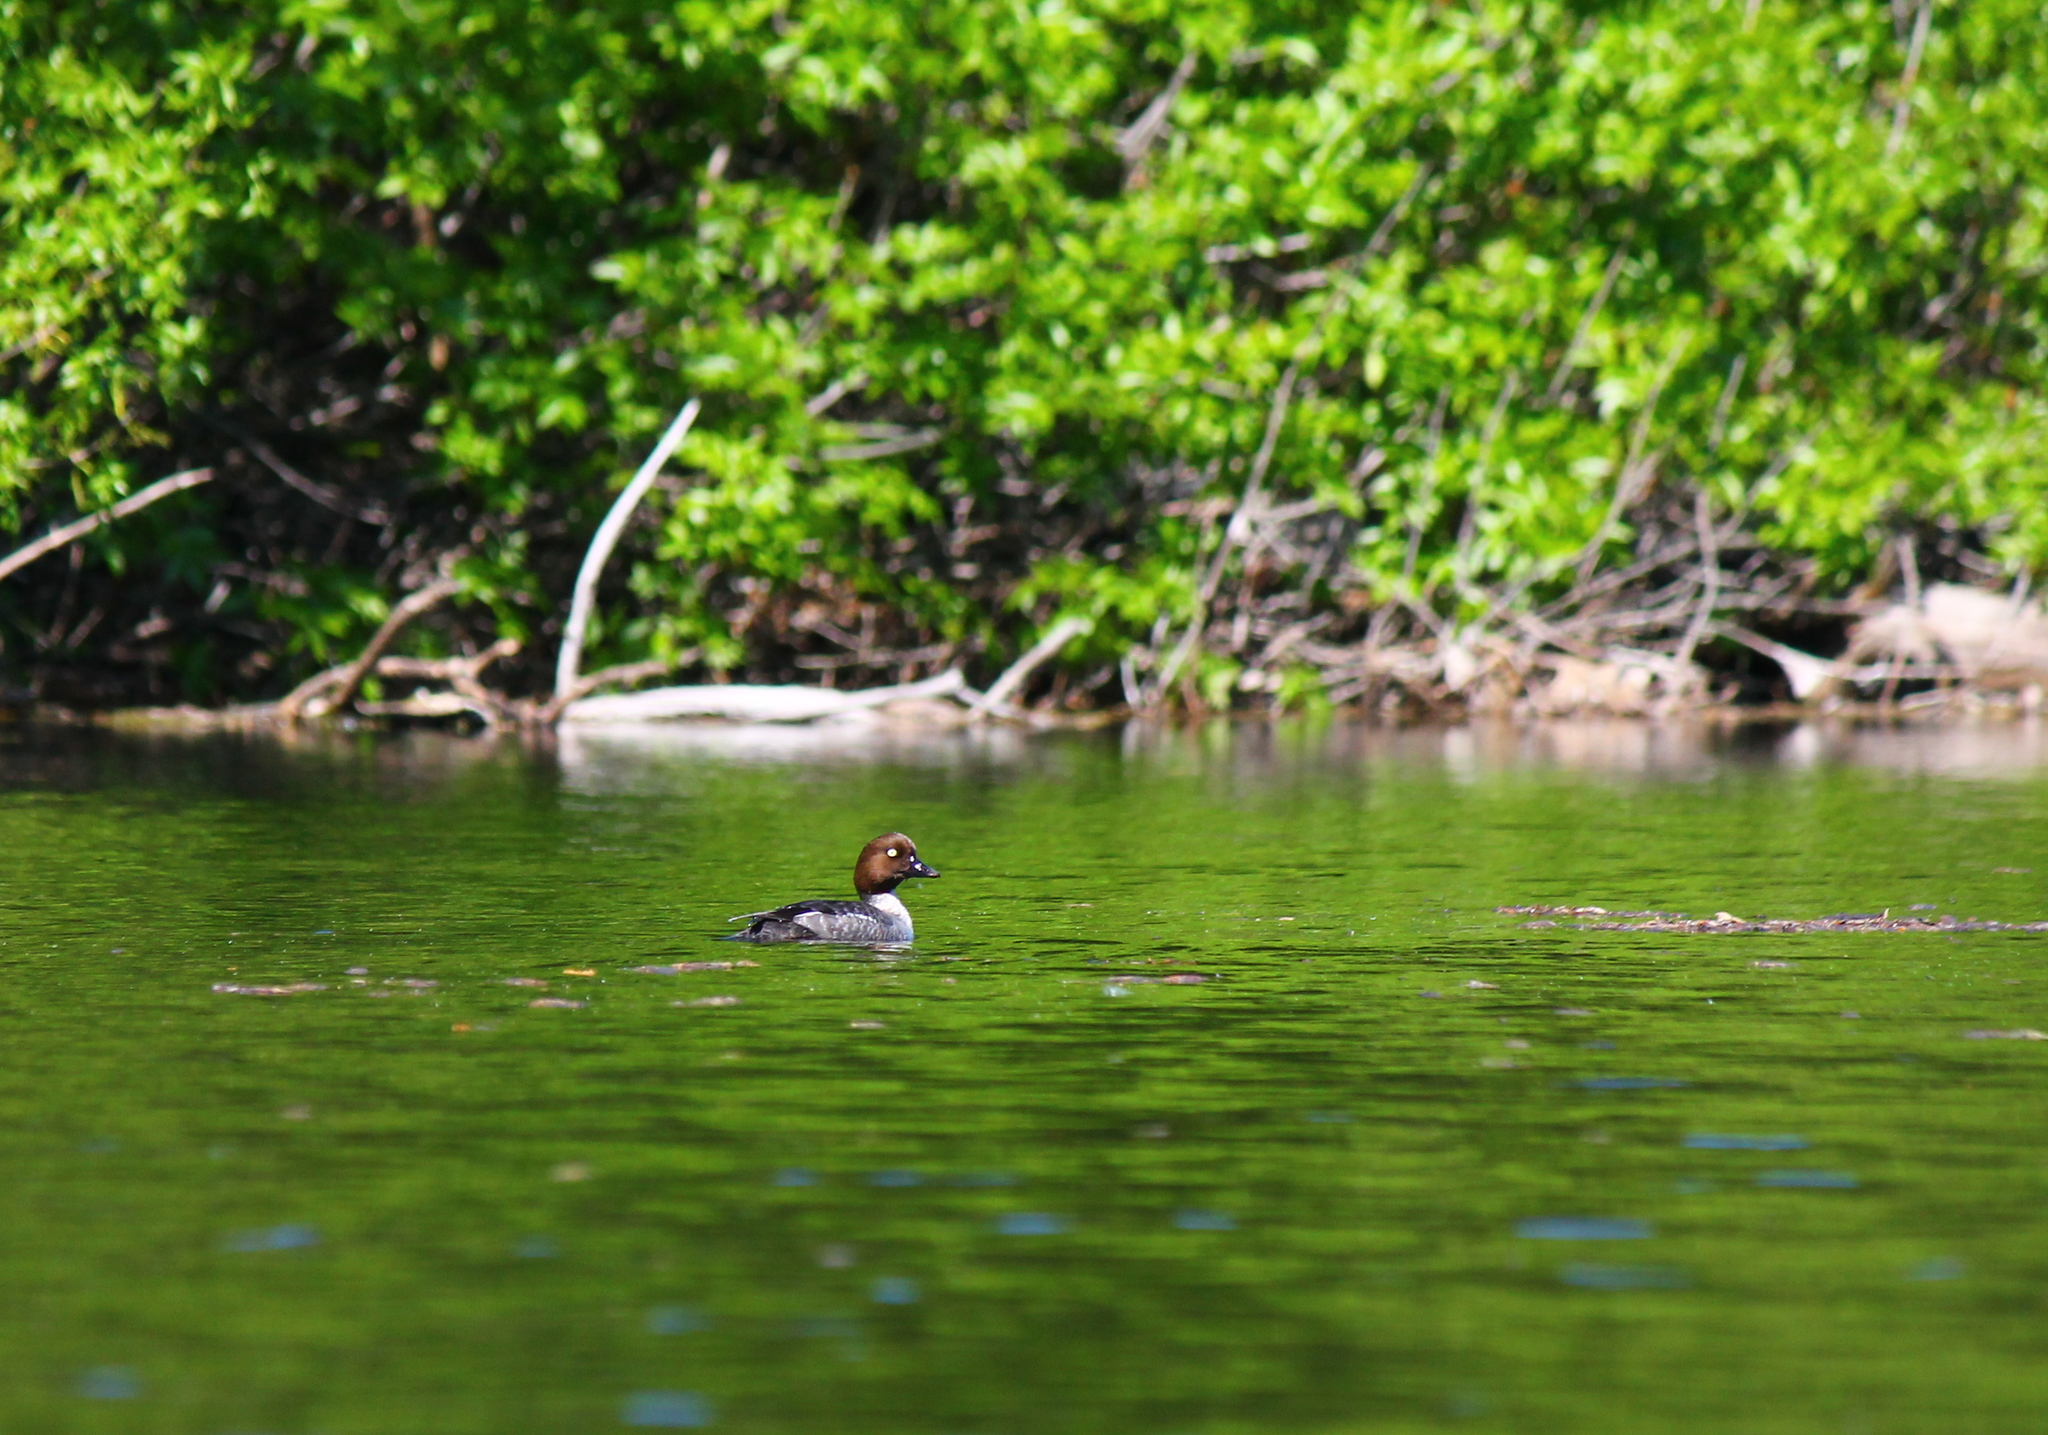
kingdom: Animalia
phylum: Chordata
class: Aves
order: Anseriformes
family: Anatidae
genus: Bucephala
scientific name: Bucephala clangula
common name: Common goldeneye
